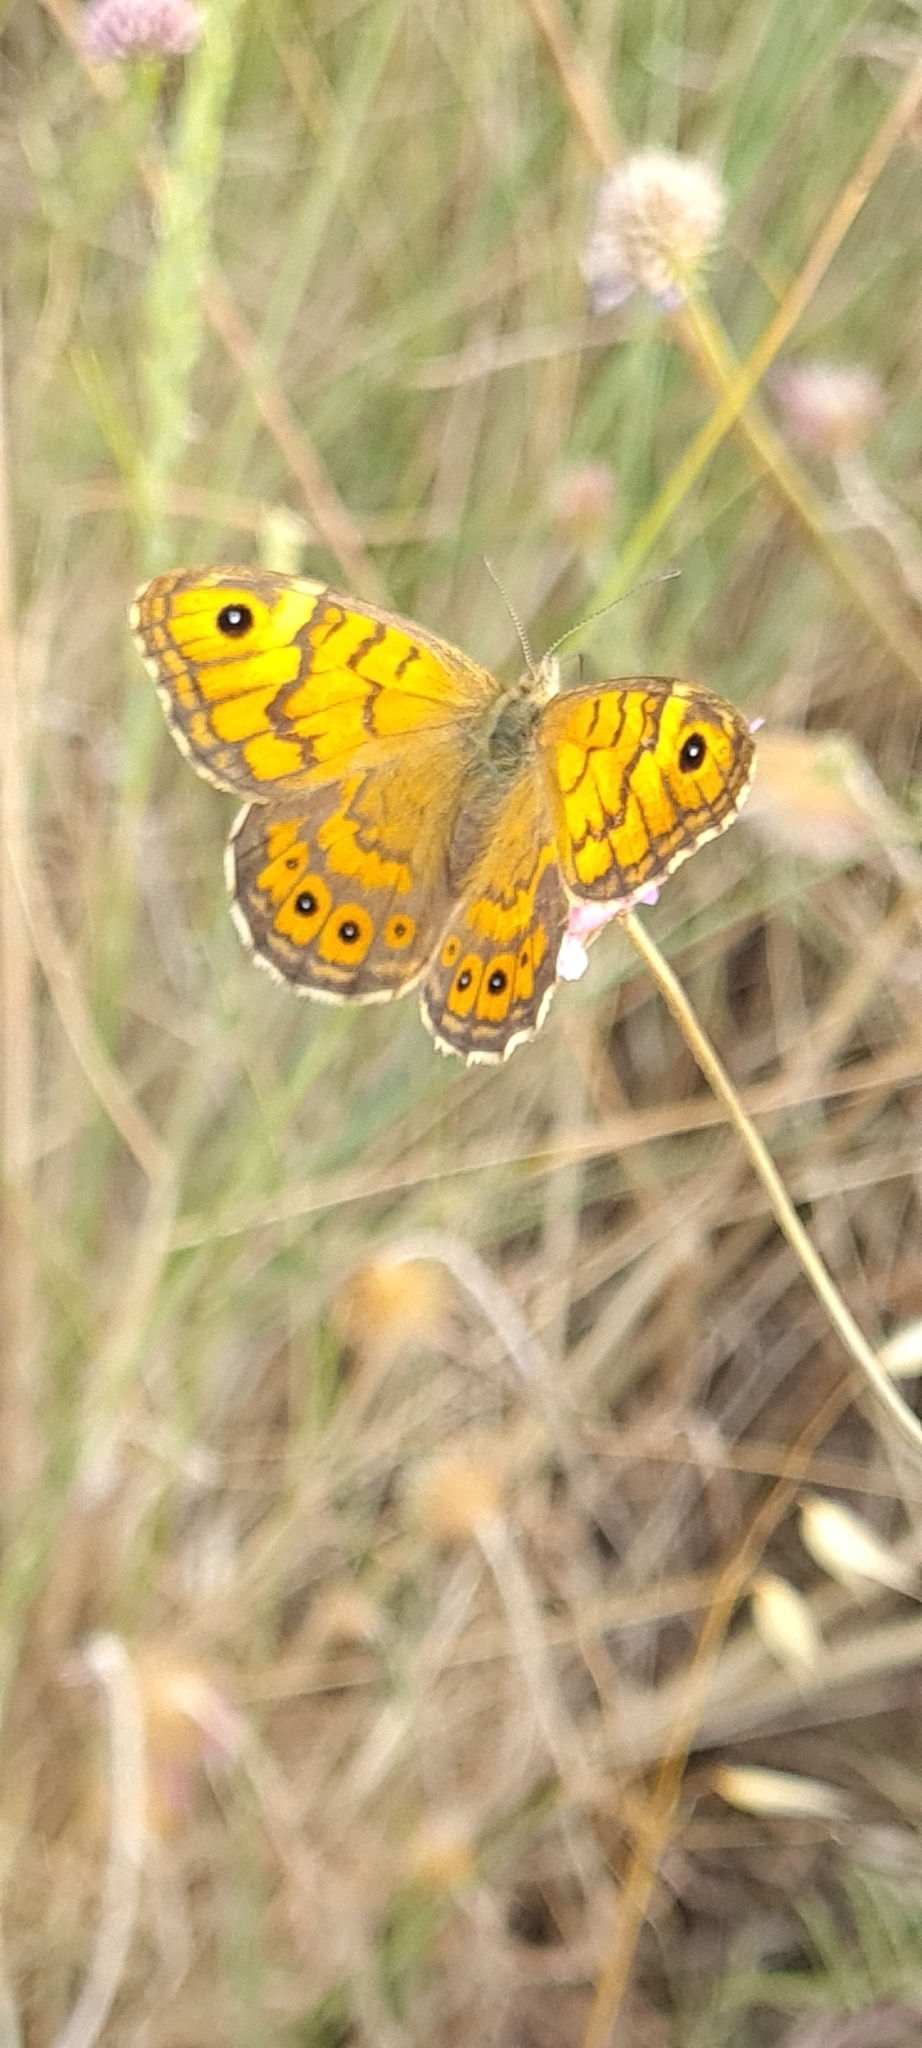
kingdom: Animalia
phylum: Arthropoda
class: Insecta
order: Lepidoptera
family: Nymphalidae
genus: Pararge
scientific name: Pararge Lasiommata megera
